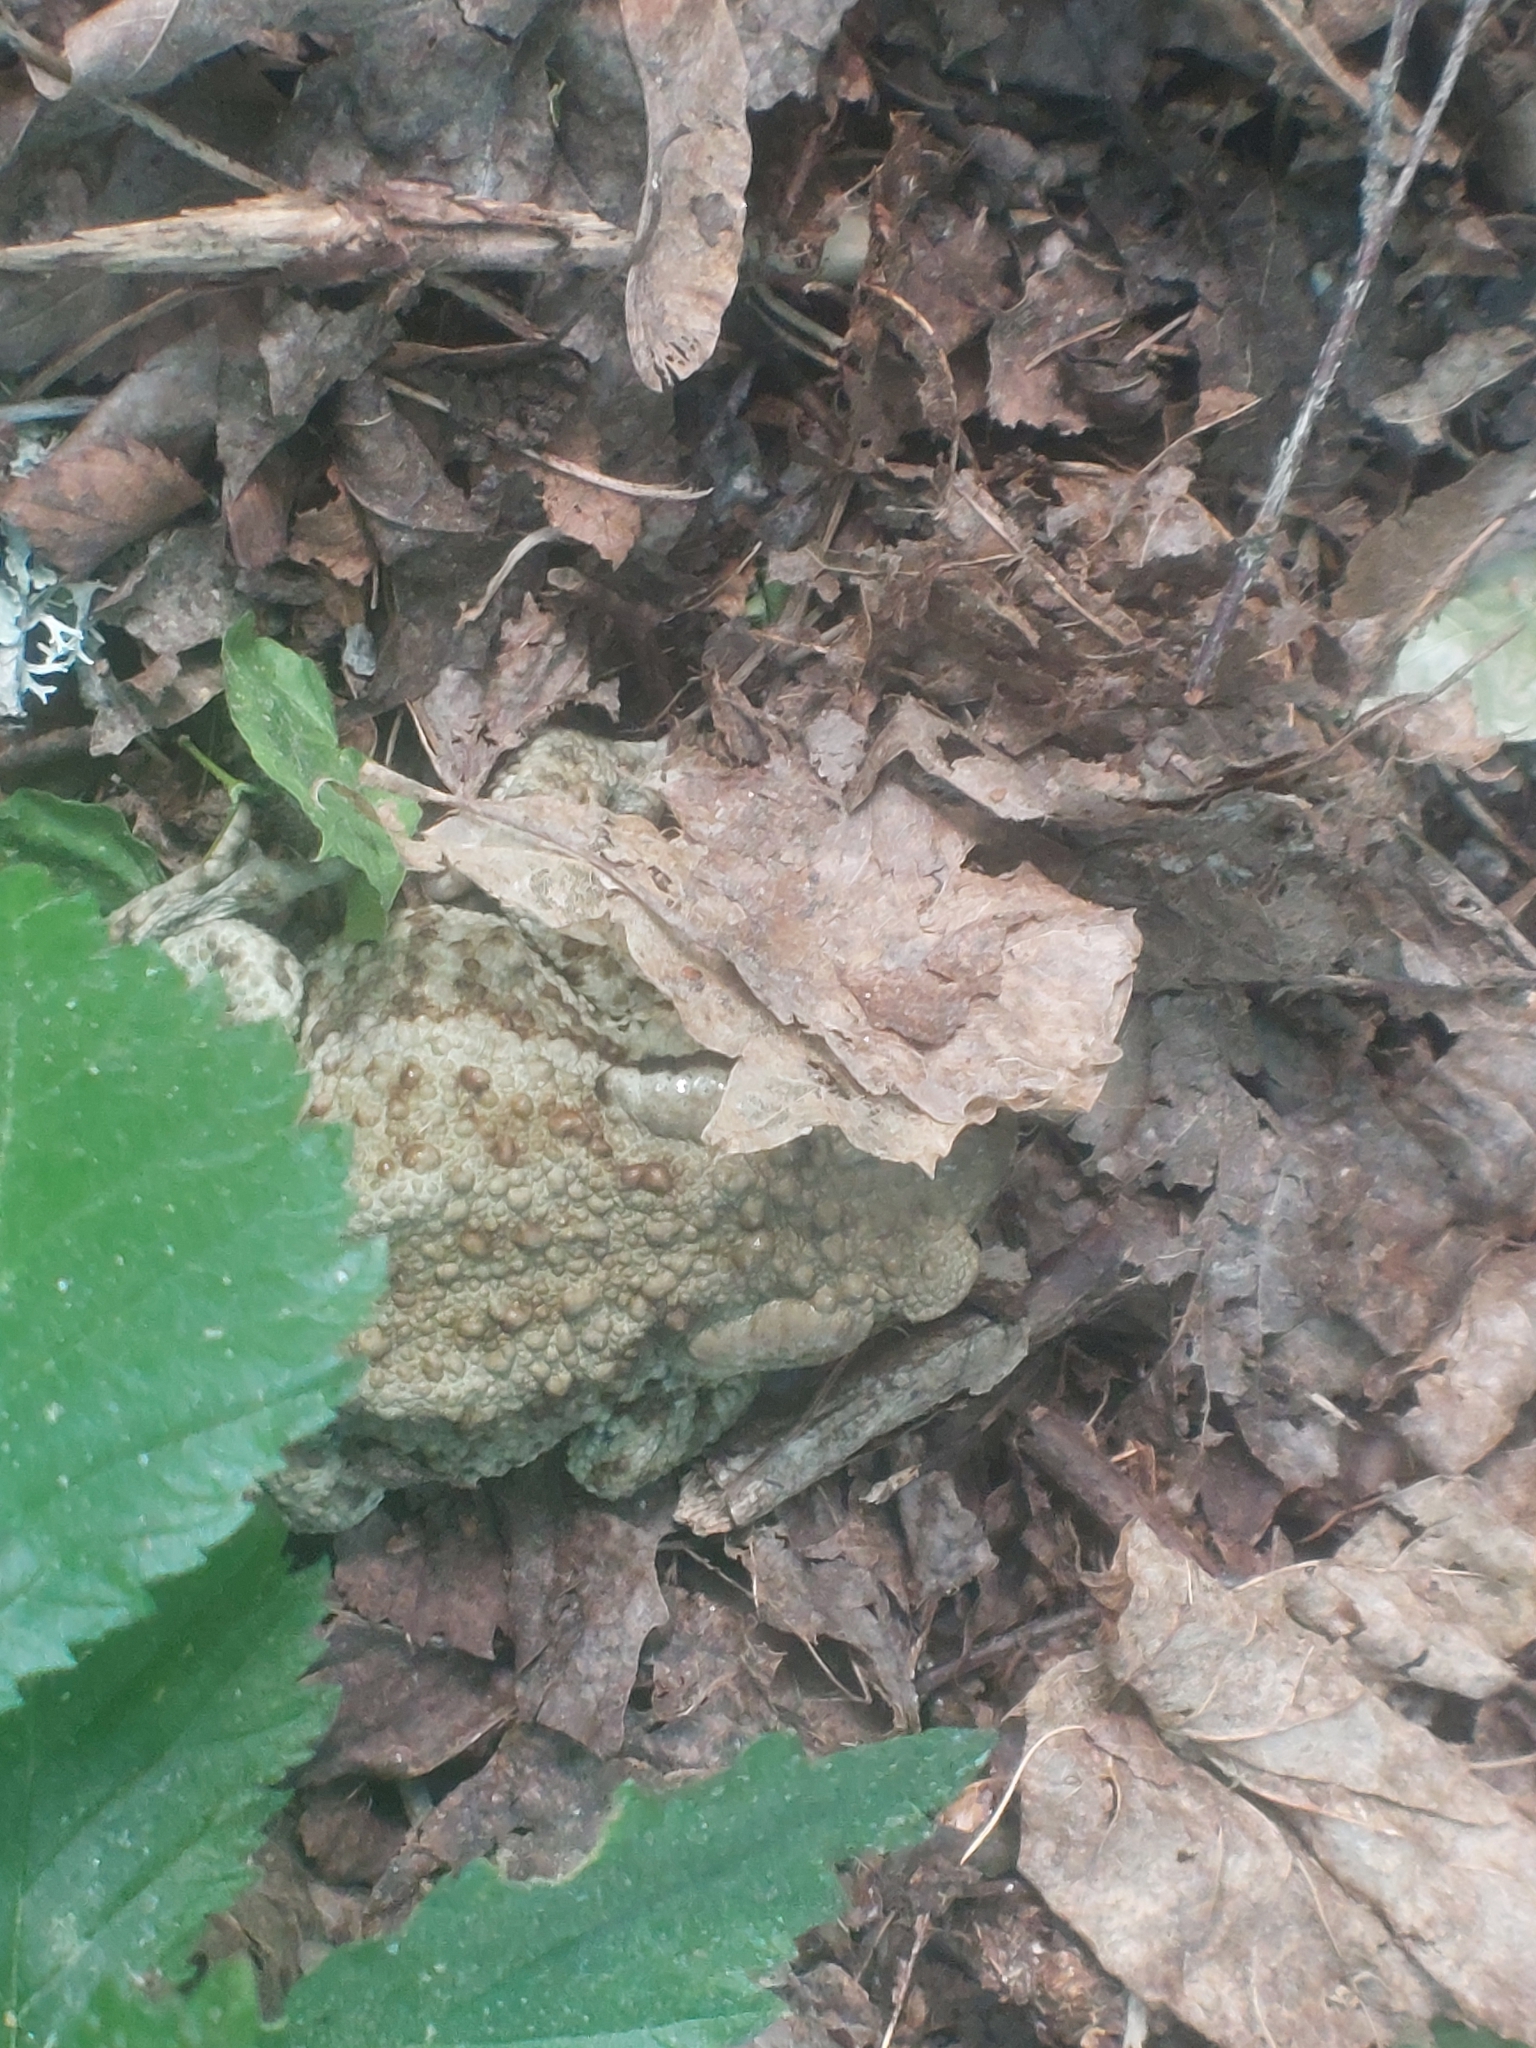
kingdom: Animalia
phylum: Chordata
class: Amphibia
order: Anura
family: Bufonidae
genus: Bufo
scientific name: Bufo bufo
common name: Common toad
